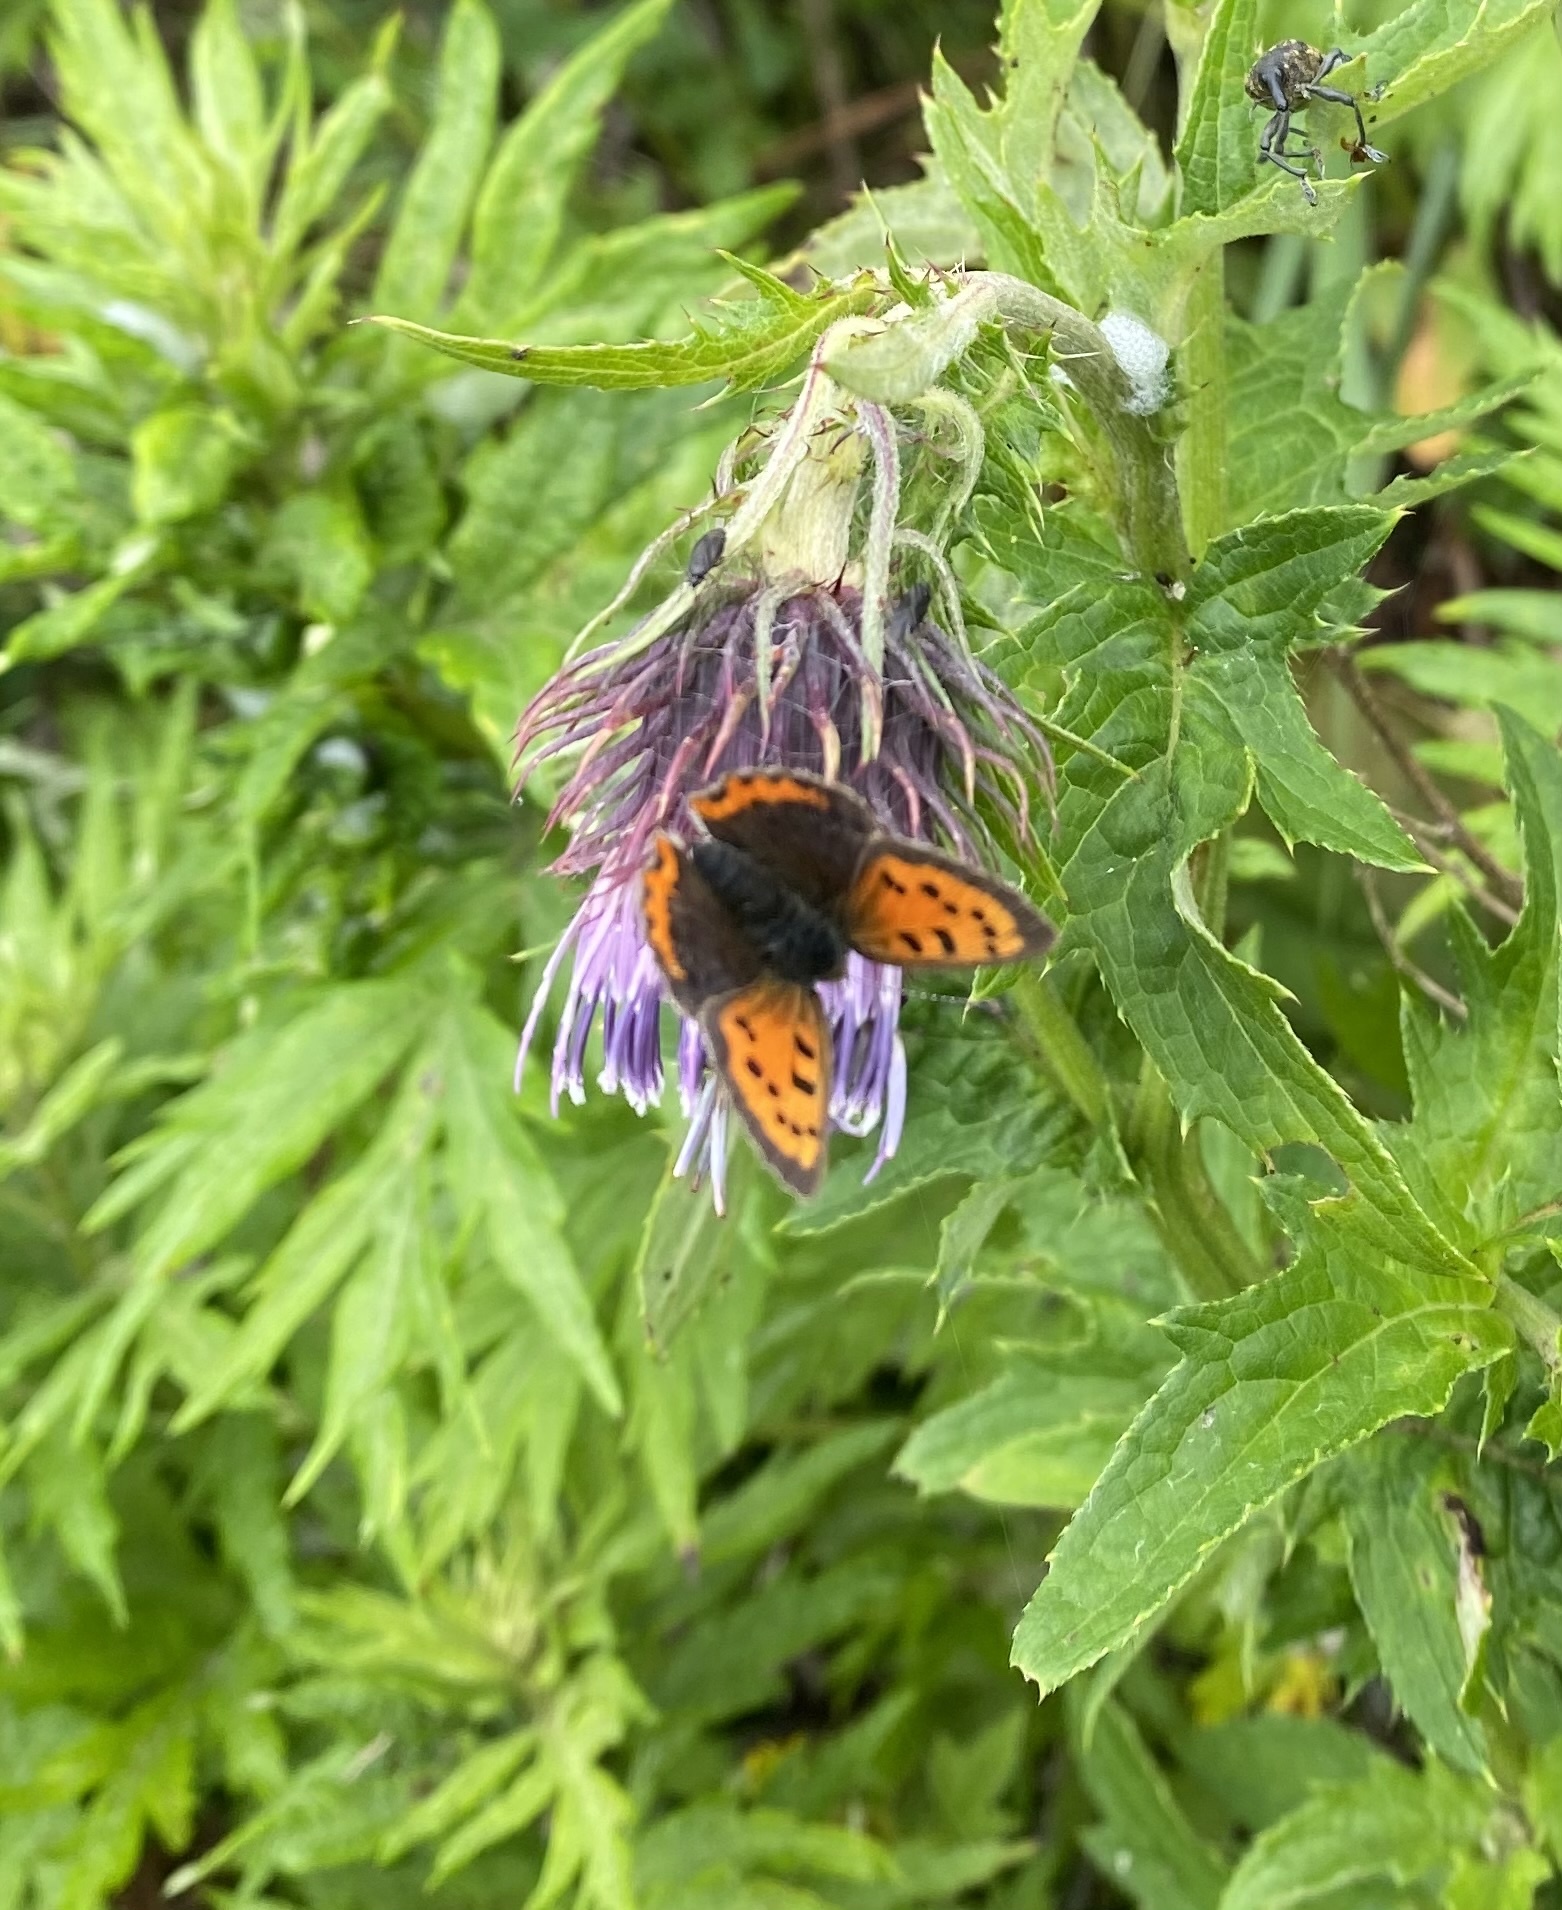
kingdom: Animalia
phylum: Arthropoda
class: Insecta
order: Lepidoptera
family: Lycaenidae
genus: Lycaena
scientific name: Lycaena phlaeas
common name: Small copper
